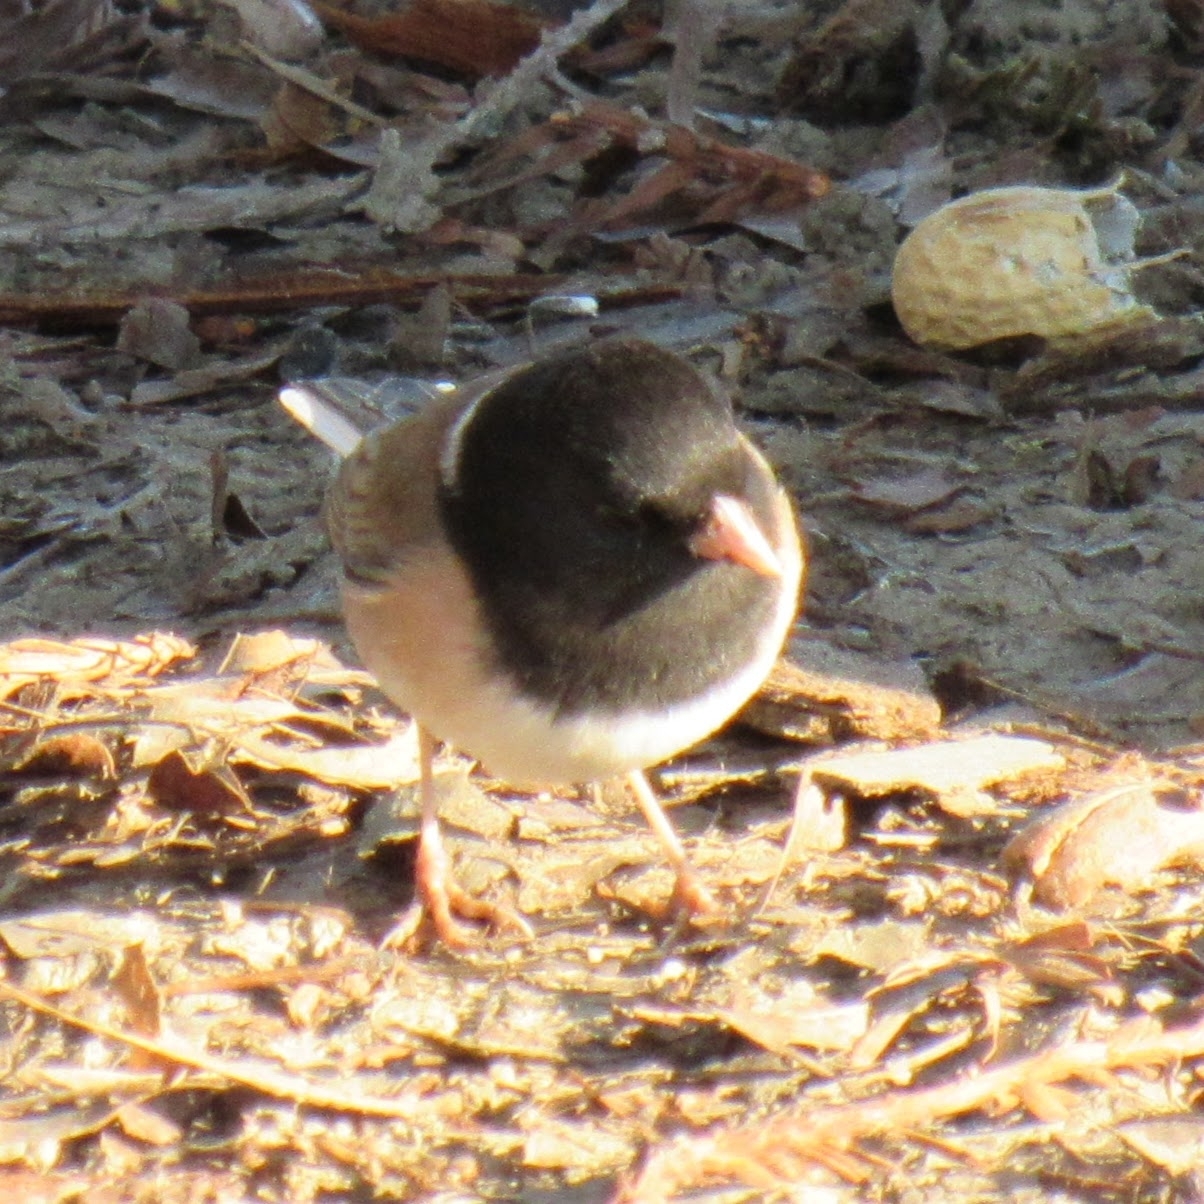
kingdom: Animalia
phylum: Chordata
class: Aves
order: Passeriformes
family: Passerellidae
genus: Junco
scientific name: Junco hyemalis
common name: Dark-eyed junco
